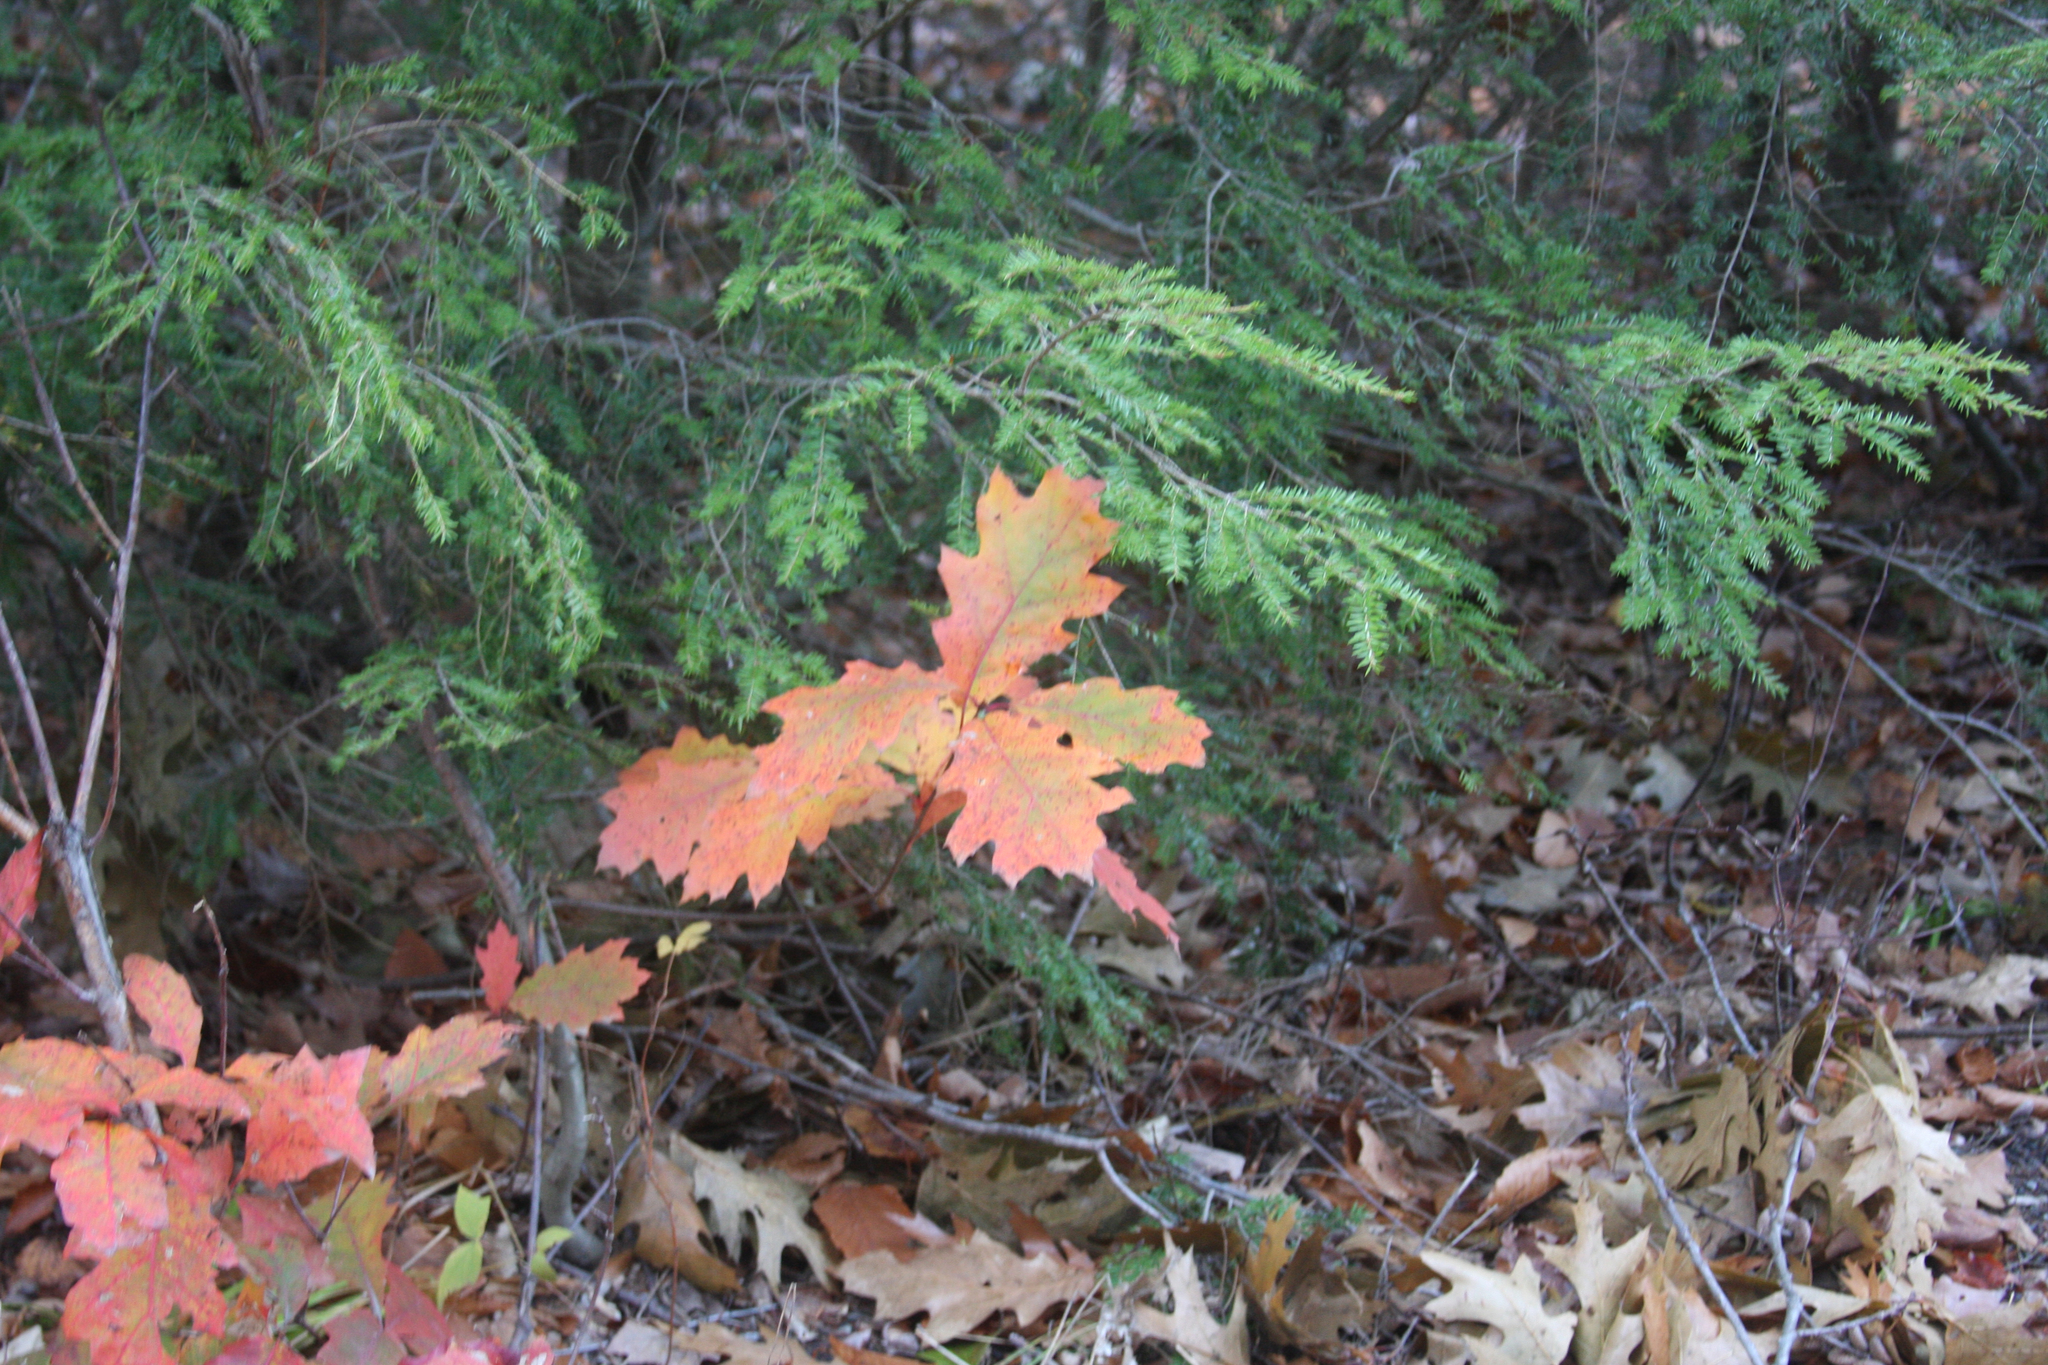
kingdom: Plantae
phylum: Tracheophyta
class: Pinopsida
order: Pinales
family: Pinaceae
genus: Tsuga
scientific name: Tsuga canadensis
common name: Eastern hemlock
